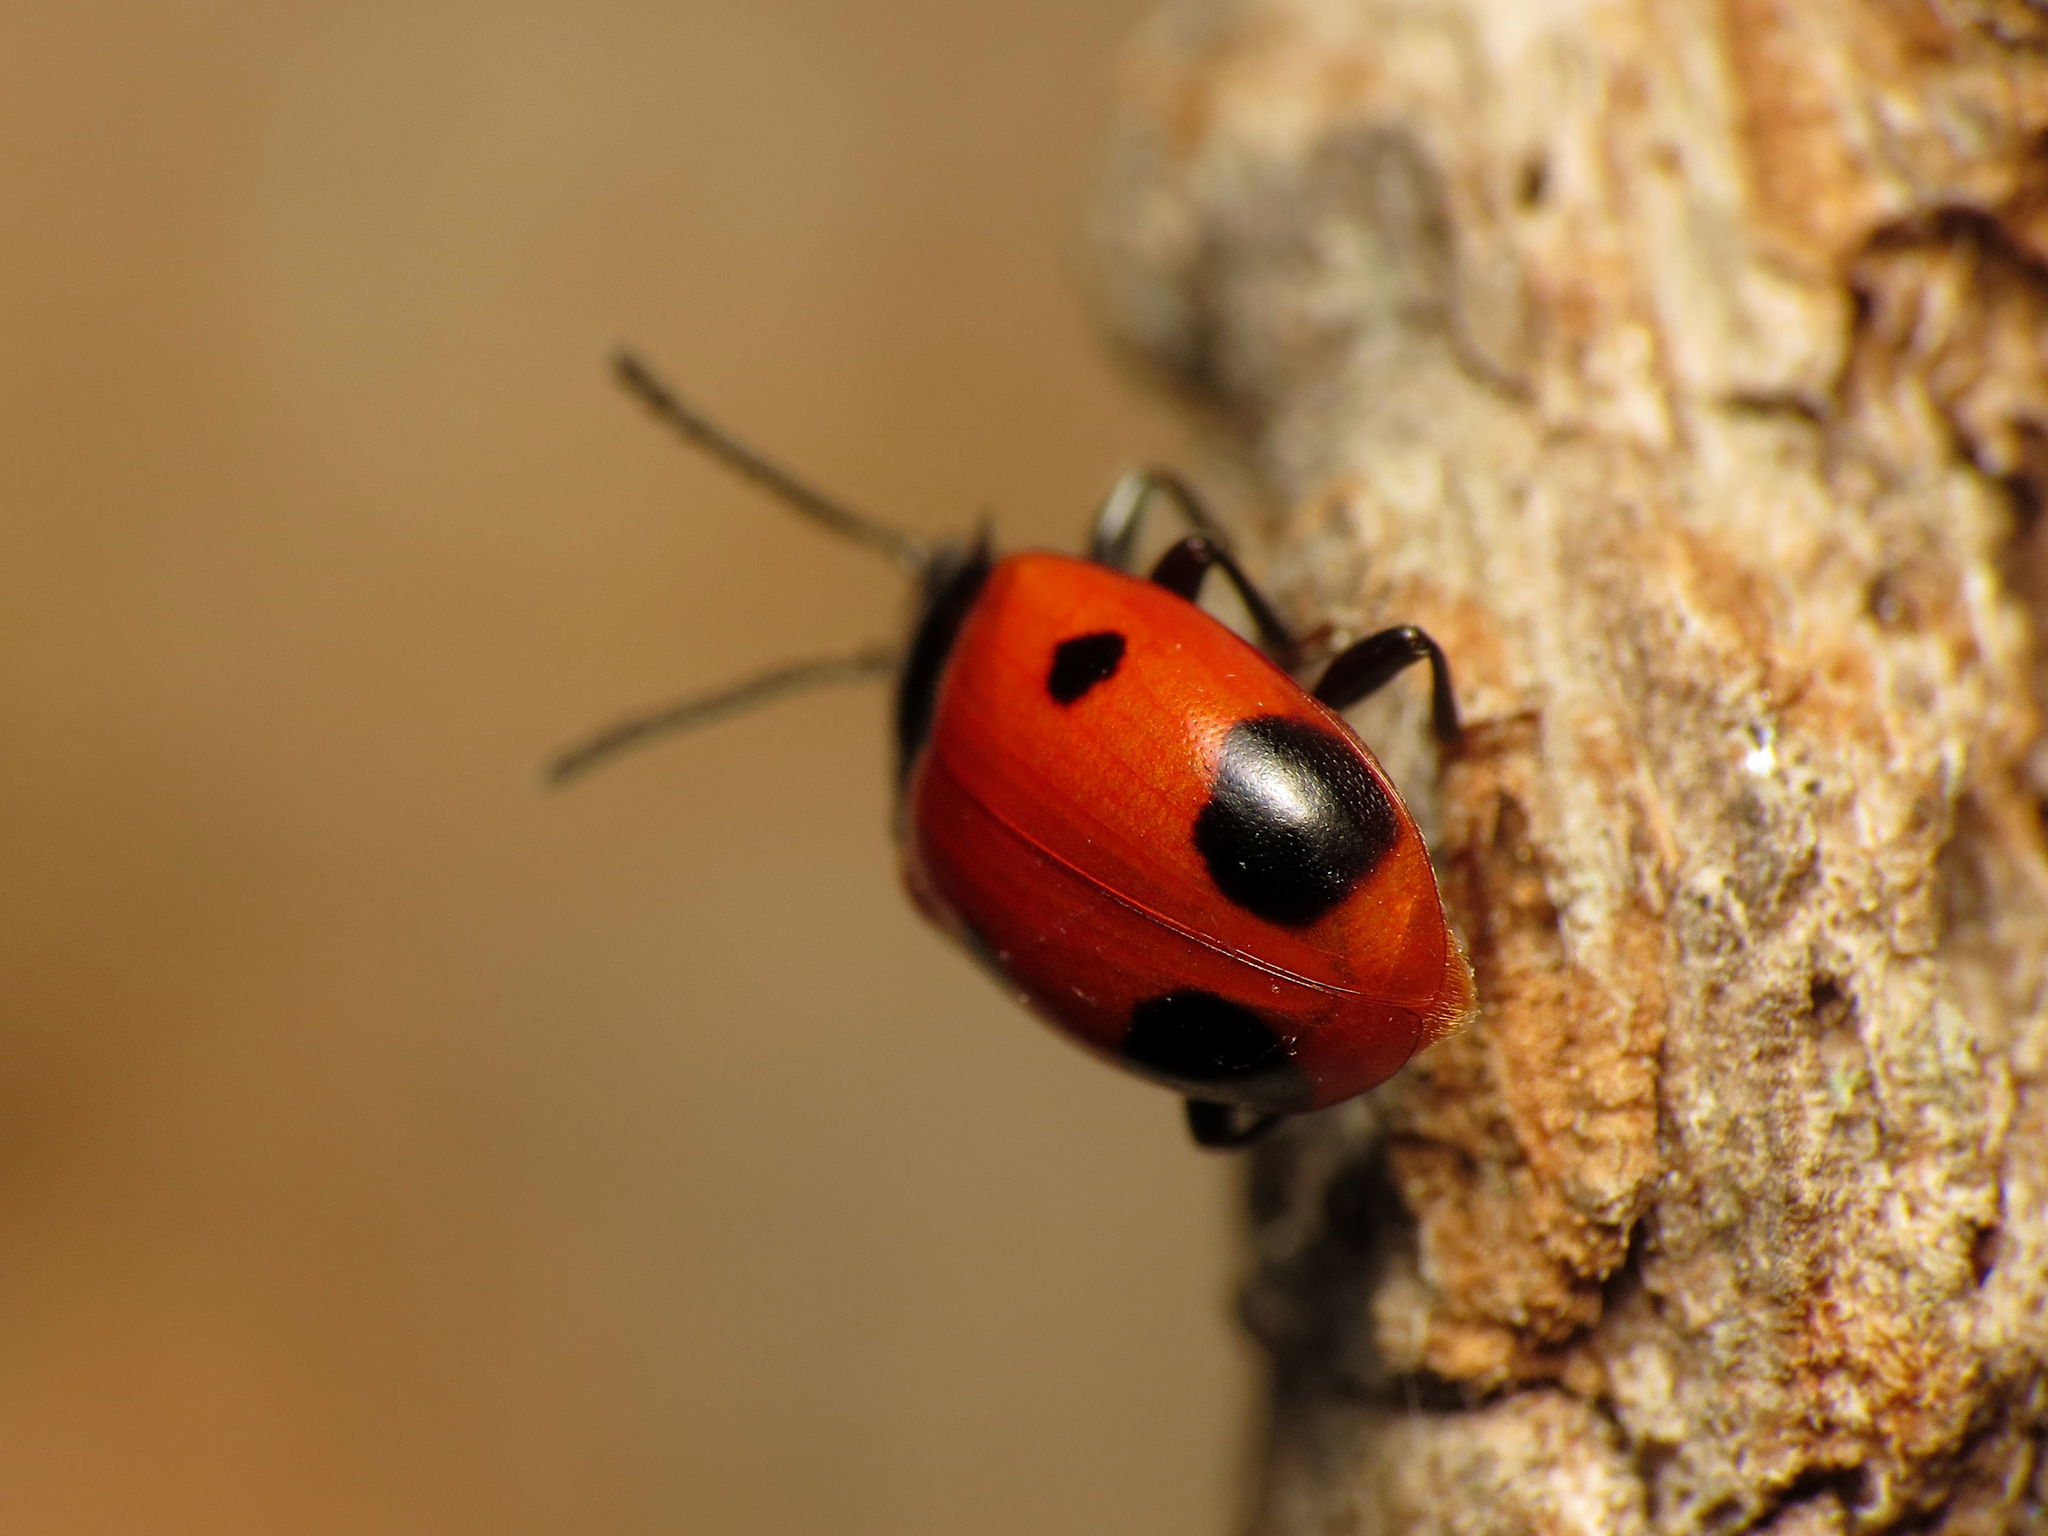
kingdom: Animalia
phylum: Arthropoda
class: Insecta
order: Coleoptera
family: Endomychidae
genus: Endomychus
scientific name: Endomychus biguttatus
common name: Handsome fungus beetle
